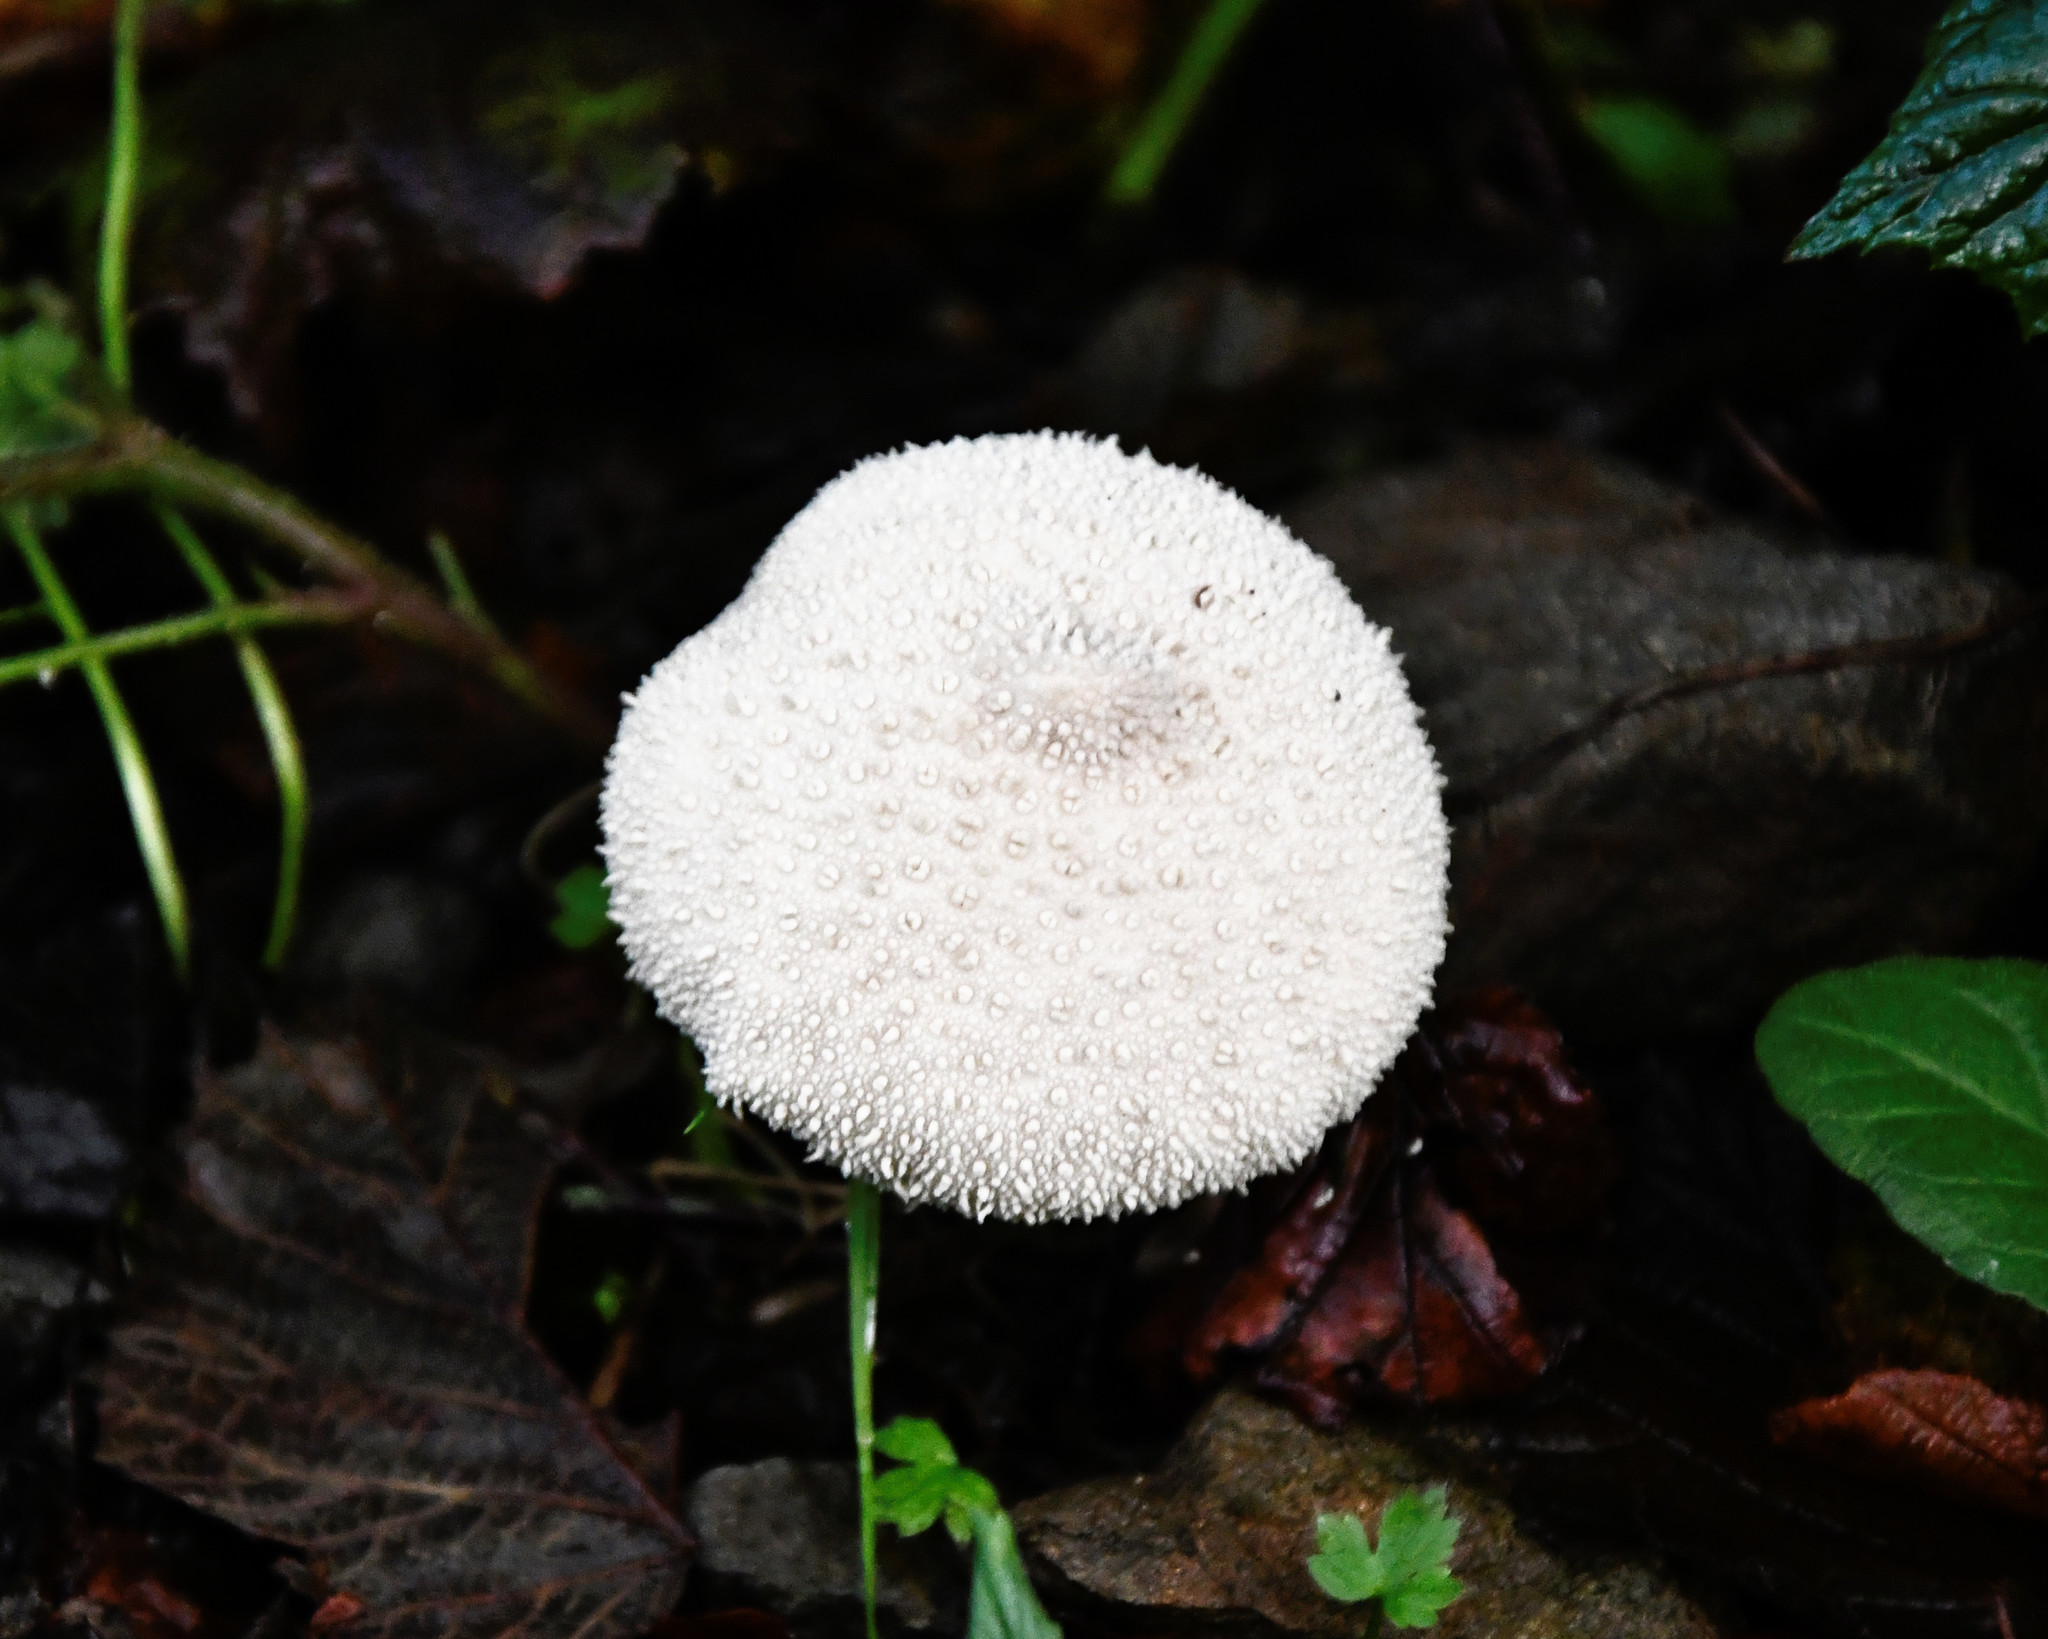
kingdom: Fungi
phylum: Basidiomycota
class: Agaricomycetes
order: Agaricales
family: Lycoperdaceae
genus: Lycoperdon
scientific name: Lycoperdon perlatum
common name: Common puffball
